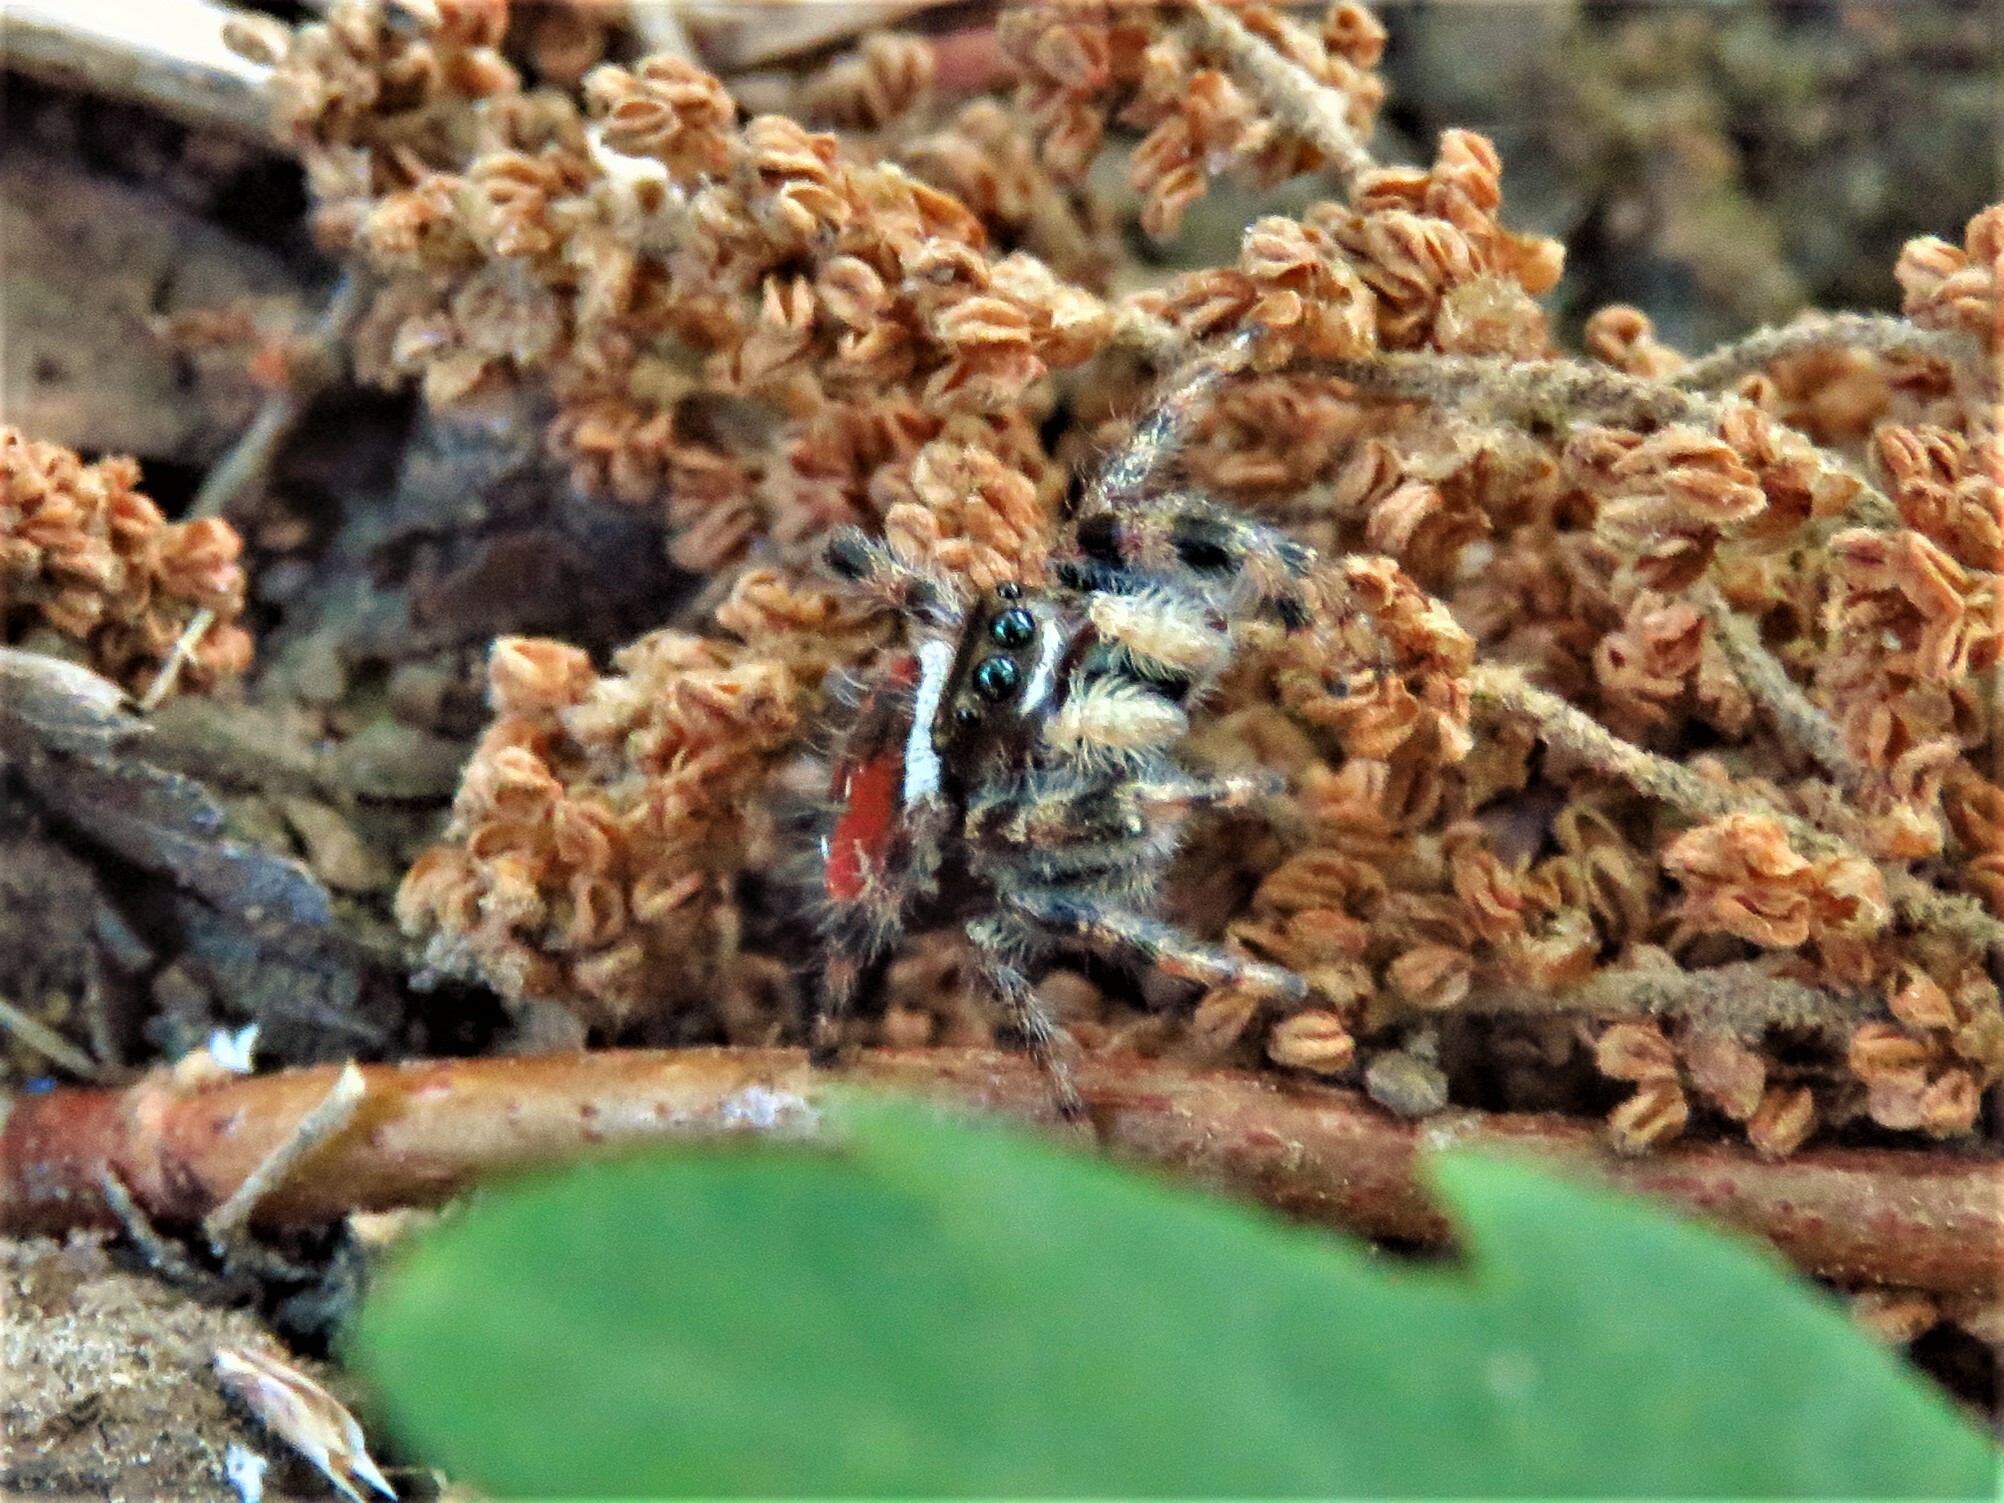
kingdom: Animalia
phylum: Arthropoda
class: Arachnida
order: Araneae
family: Salticidae
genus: Phidippus
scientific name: Phidippus clarus
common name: Brilliant jumping spider
